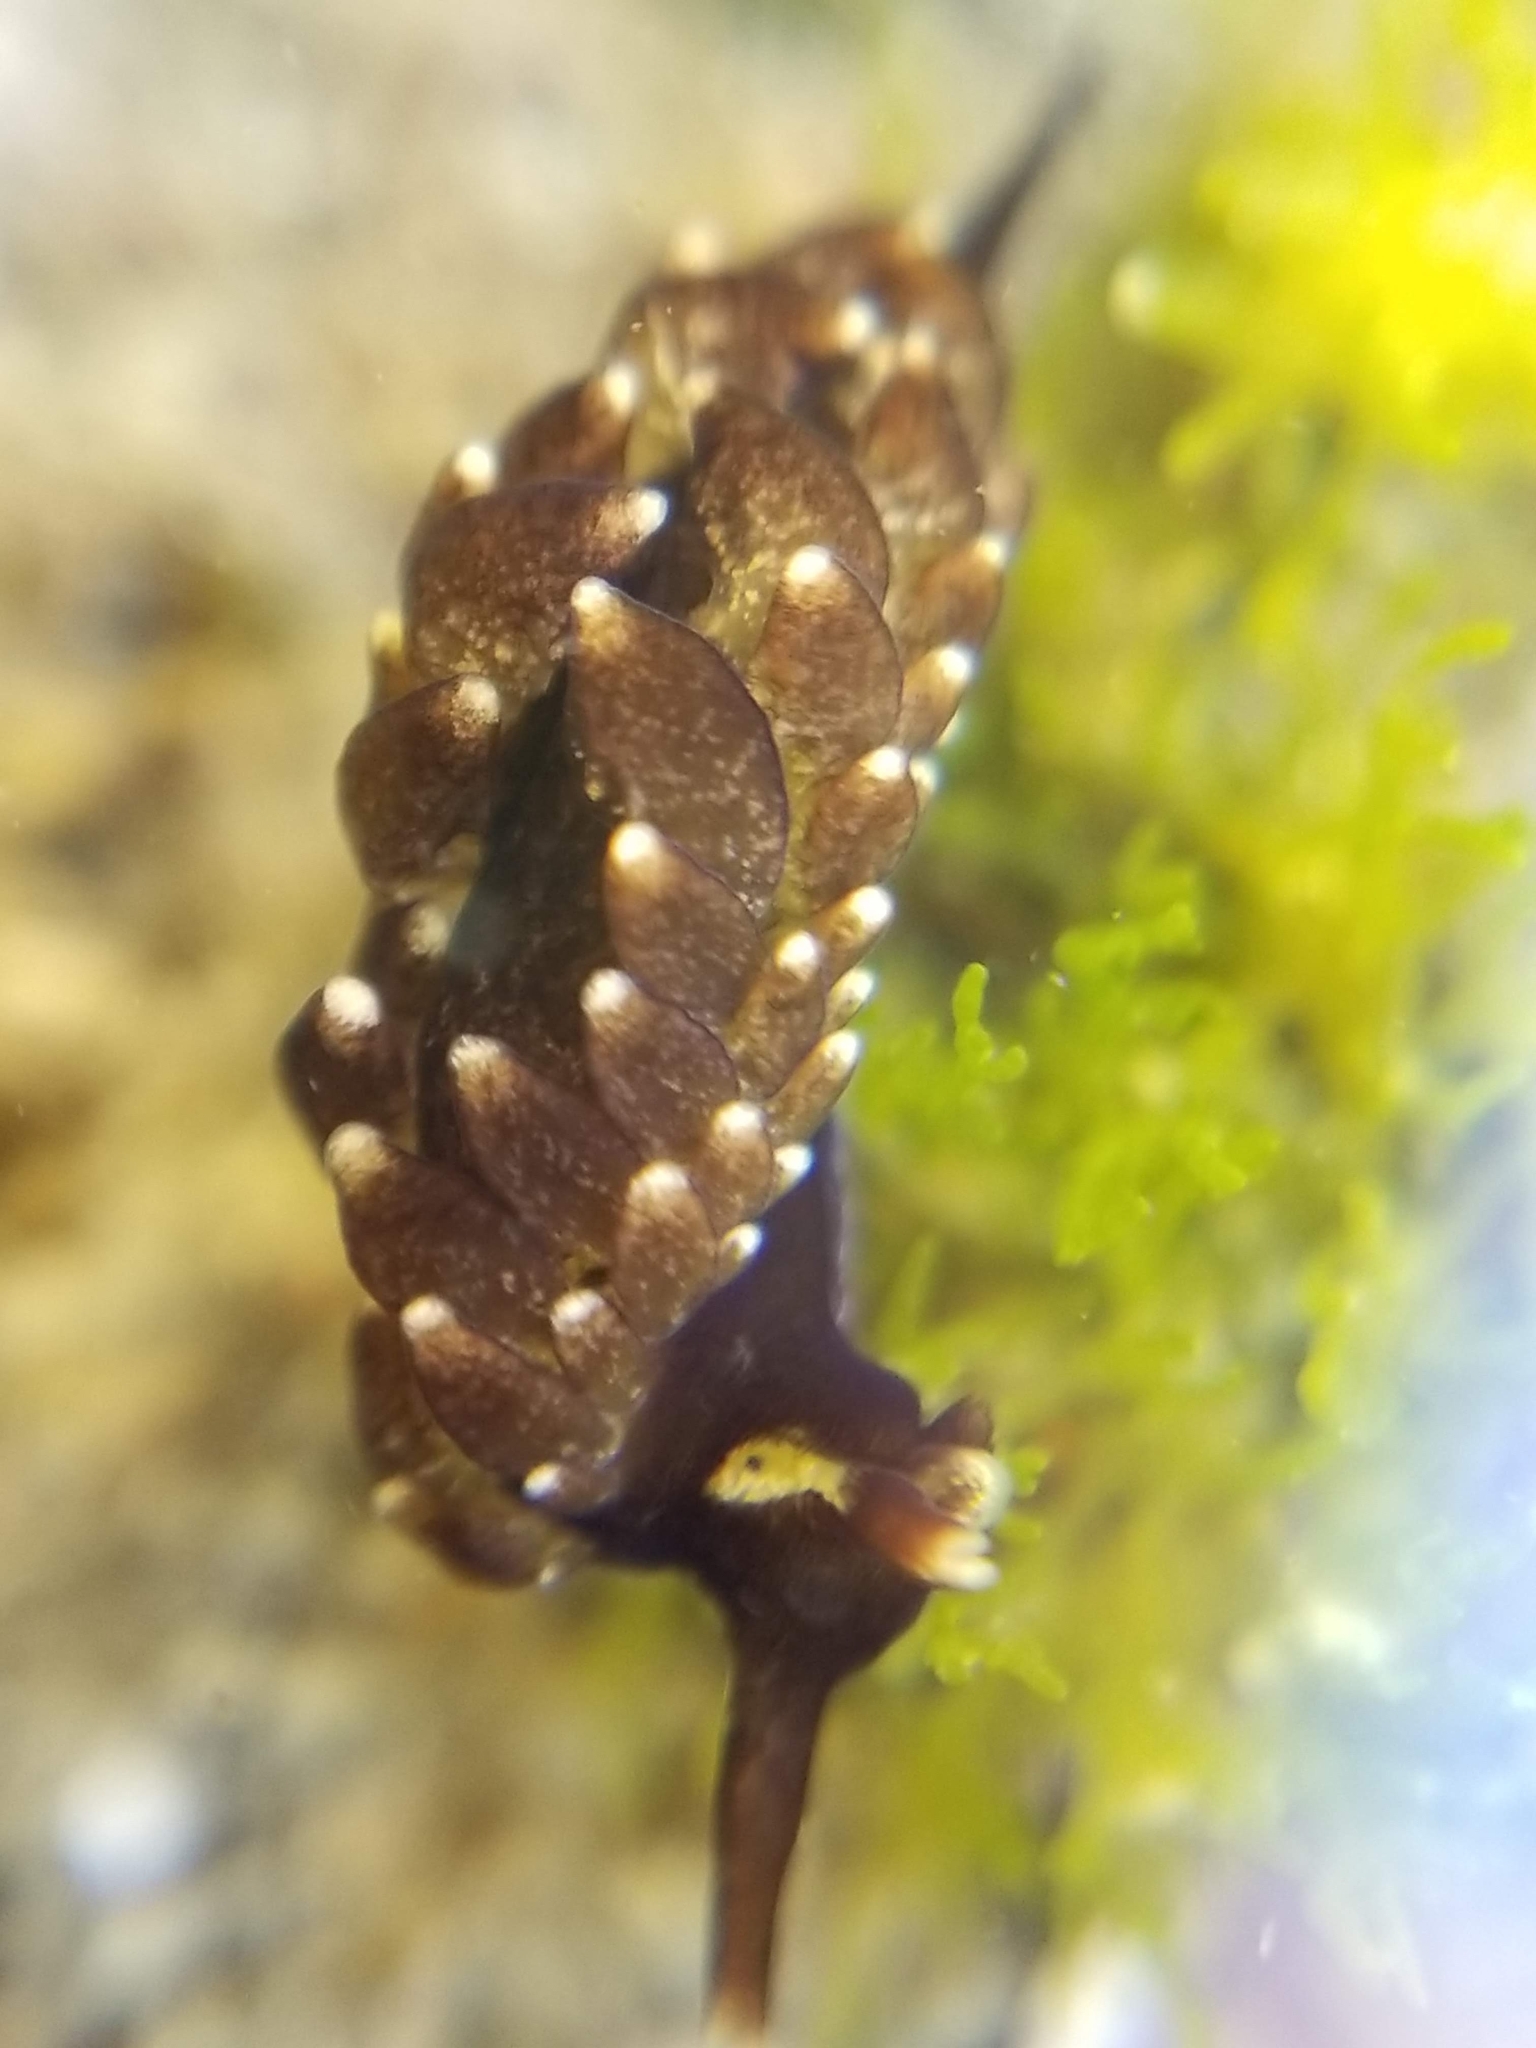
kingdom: Animalia
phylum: Mollusca
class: Gastropoda
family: Hermaeidae
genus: Aplysiopsis
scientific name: Aplysiopsis enteromorphae
